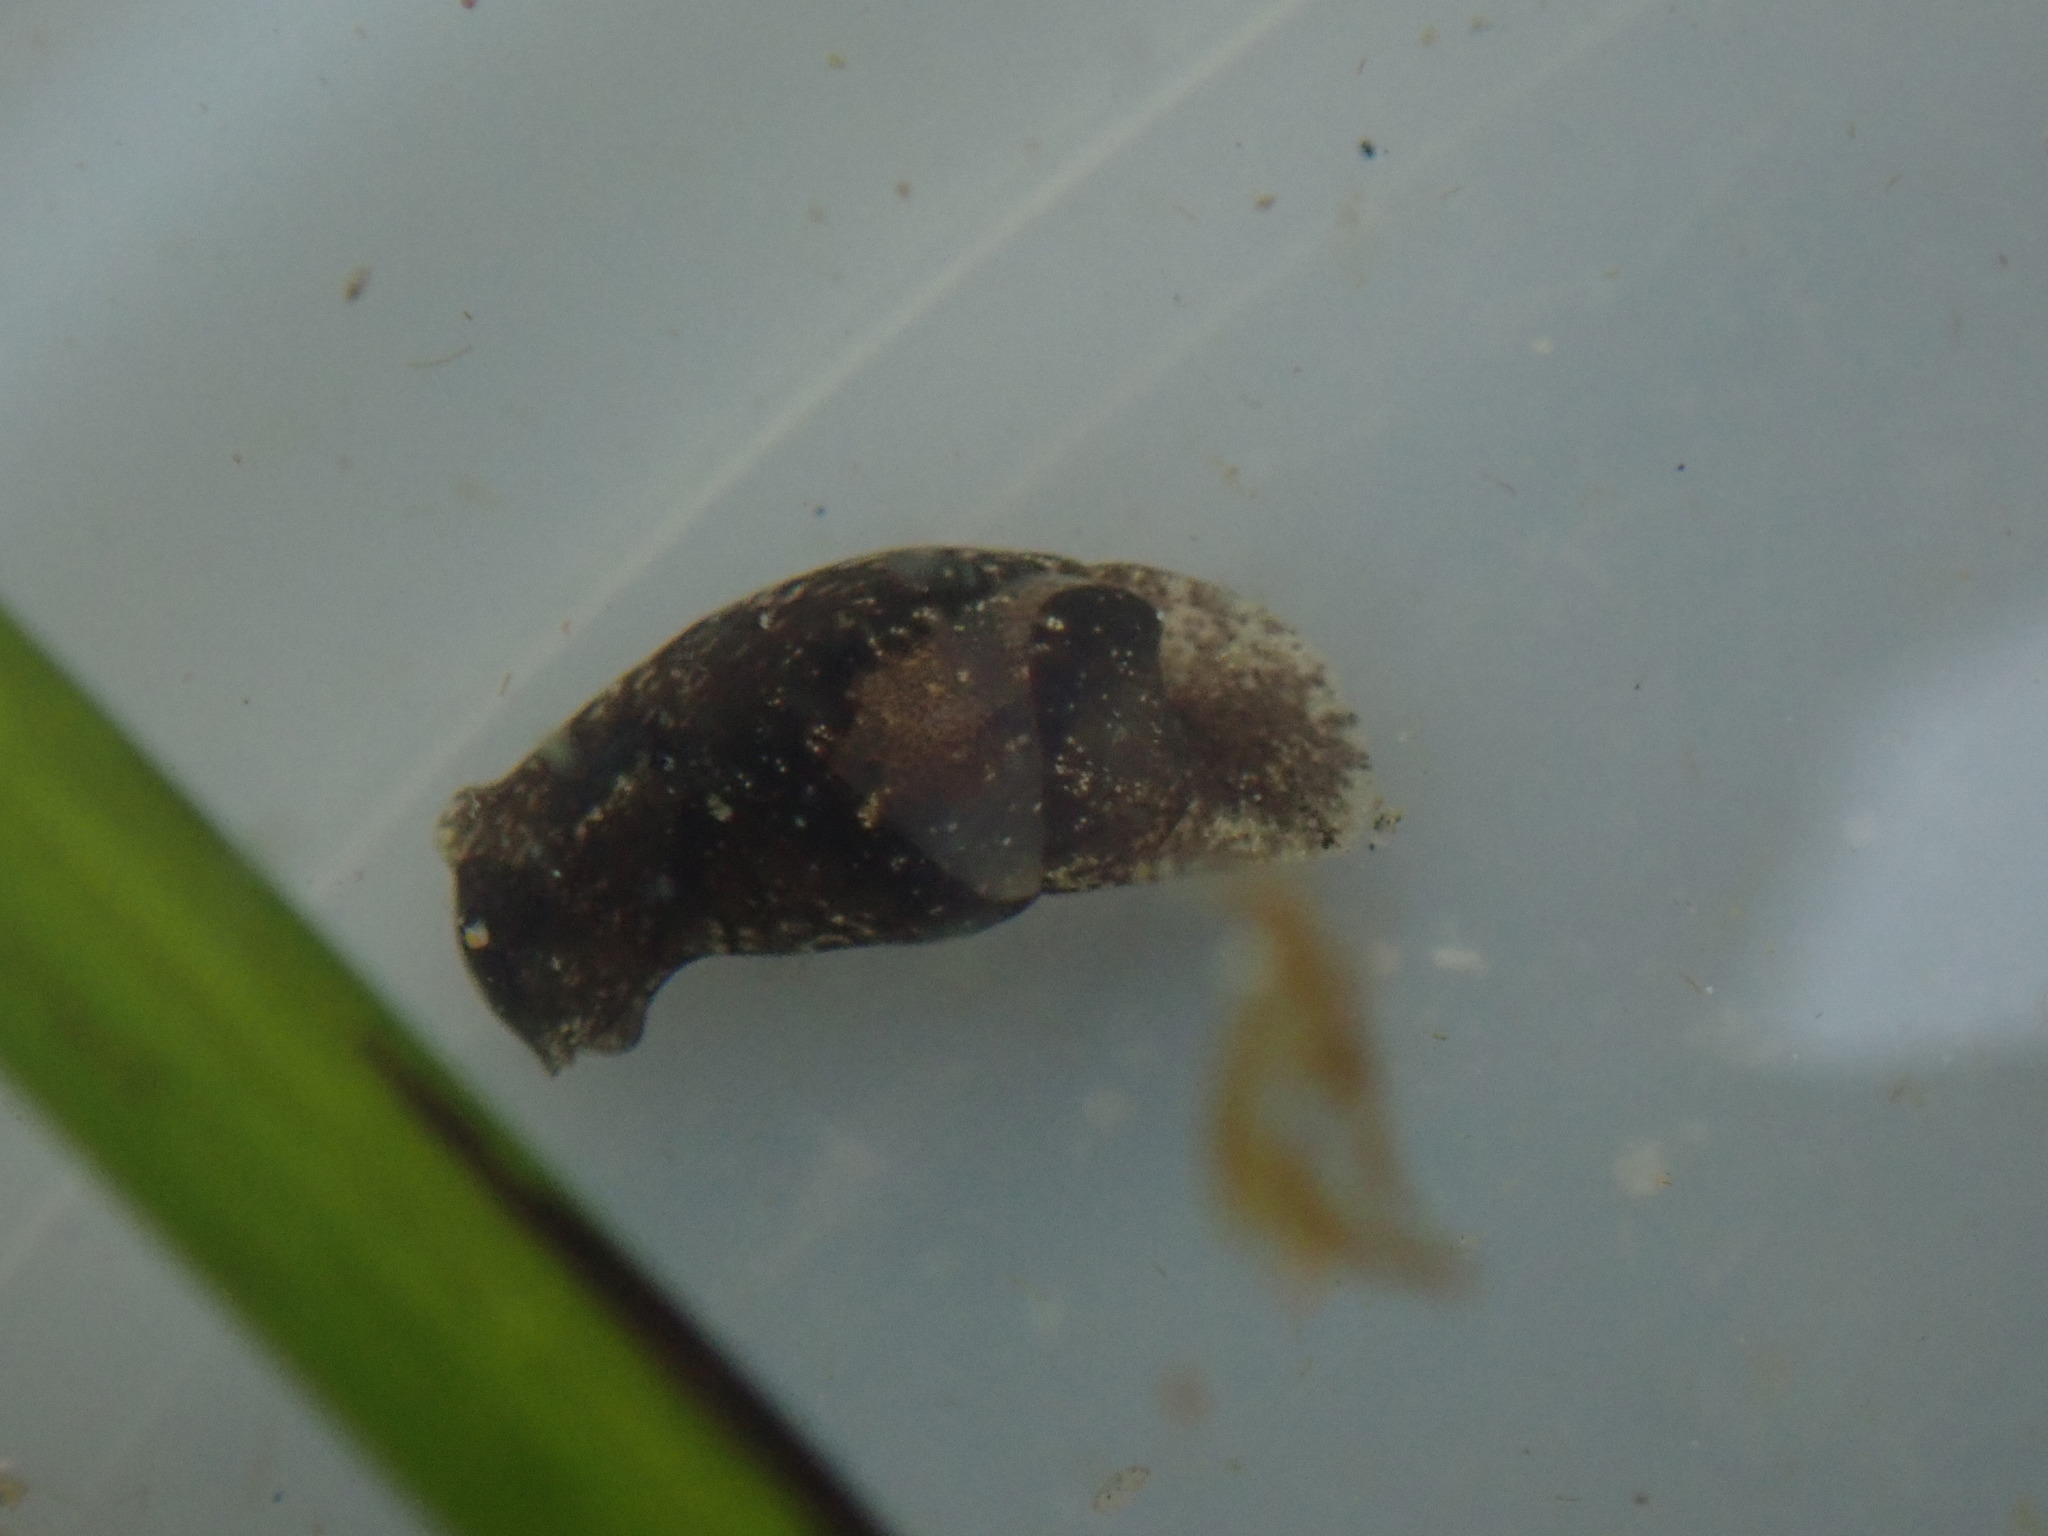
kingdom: Animalia
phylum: Mollusca
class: Gastropoda
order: Cephalaspidea
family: Haminoeidae
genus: Haloa
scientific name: Haloa japonica
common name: Japanese bubble snail
